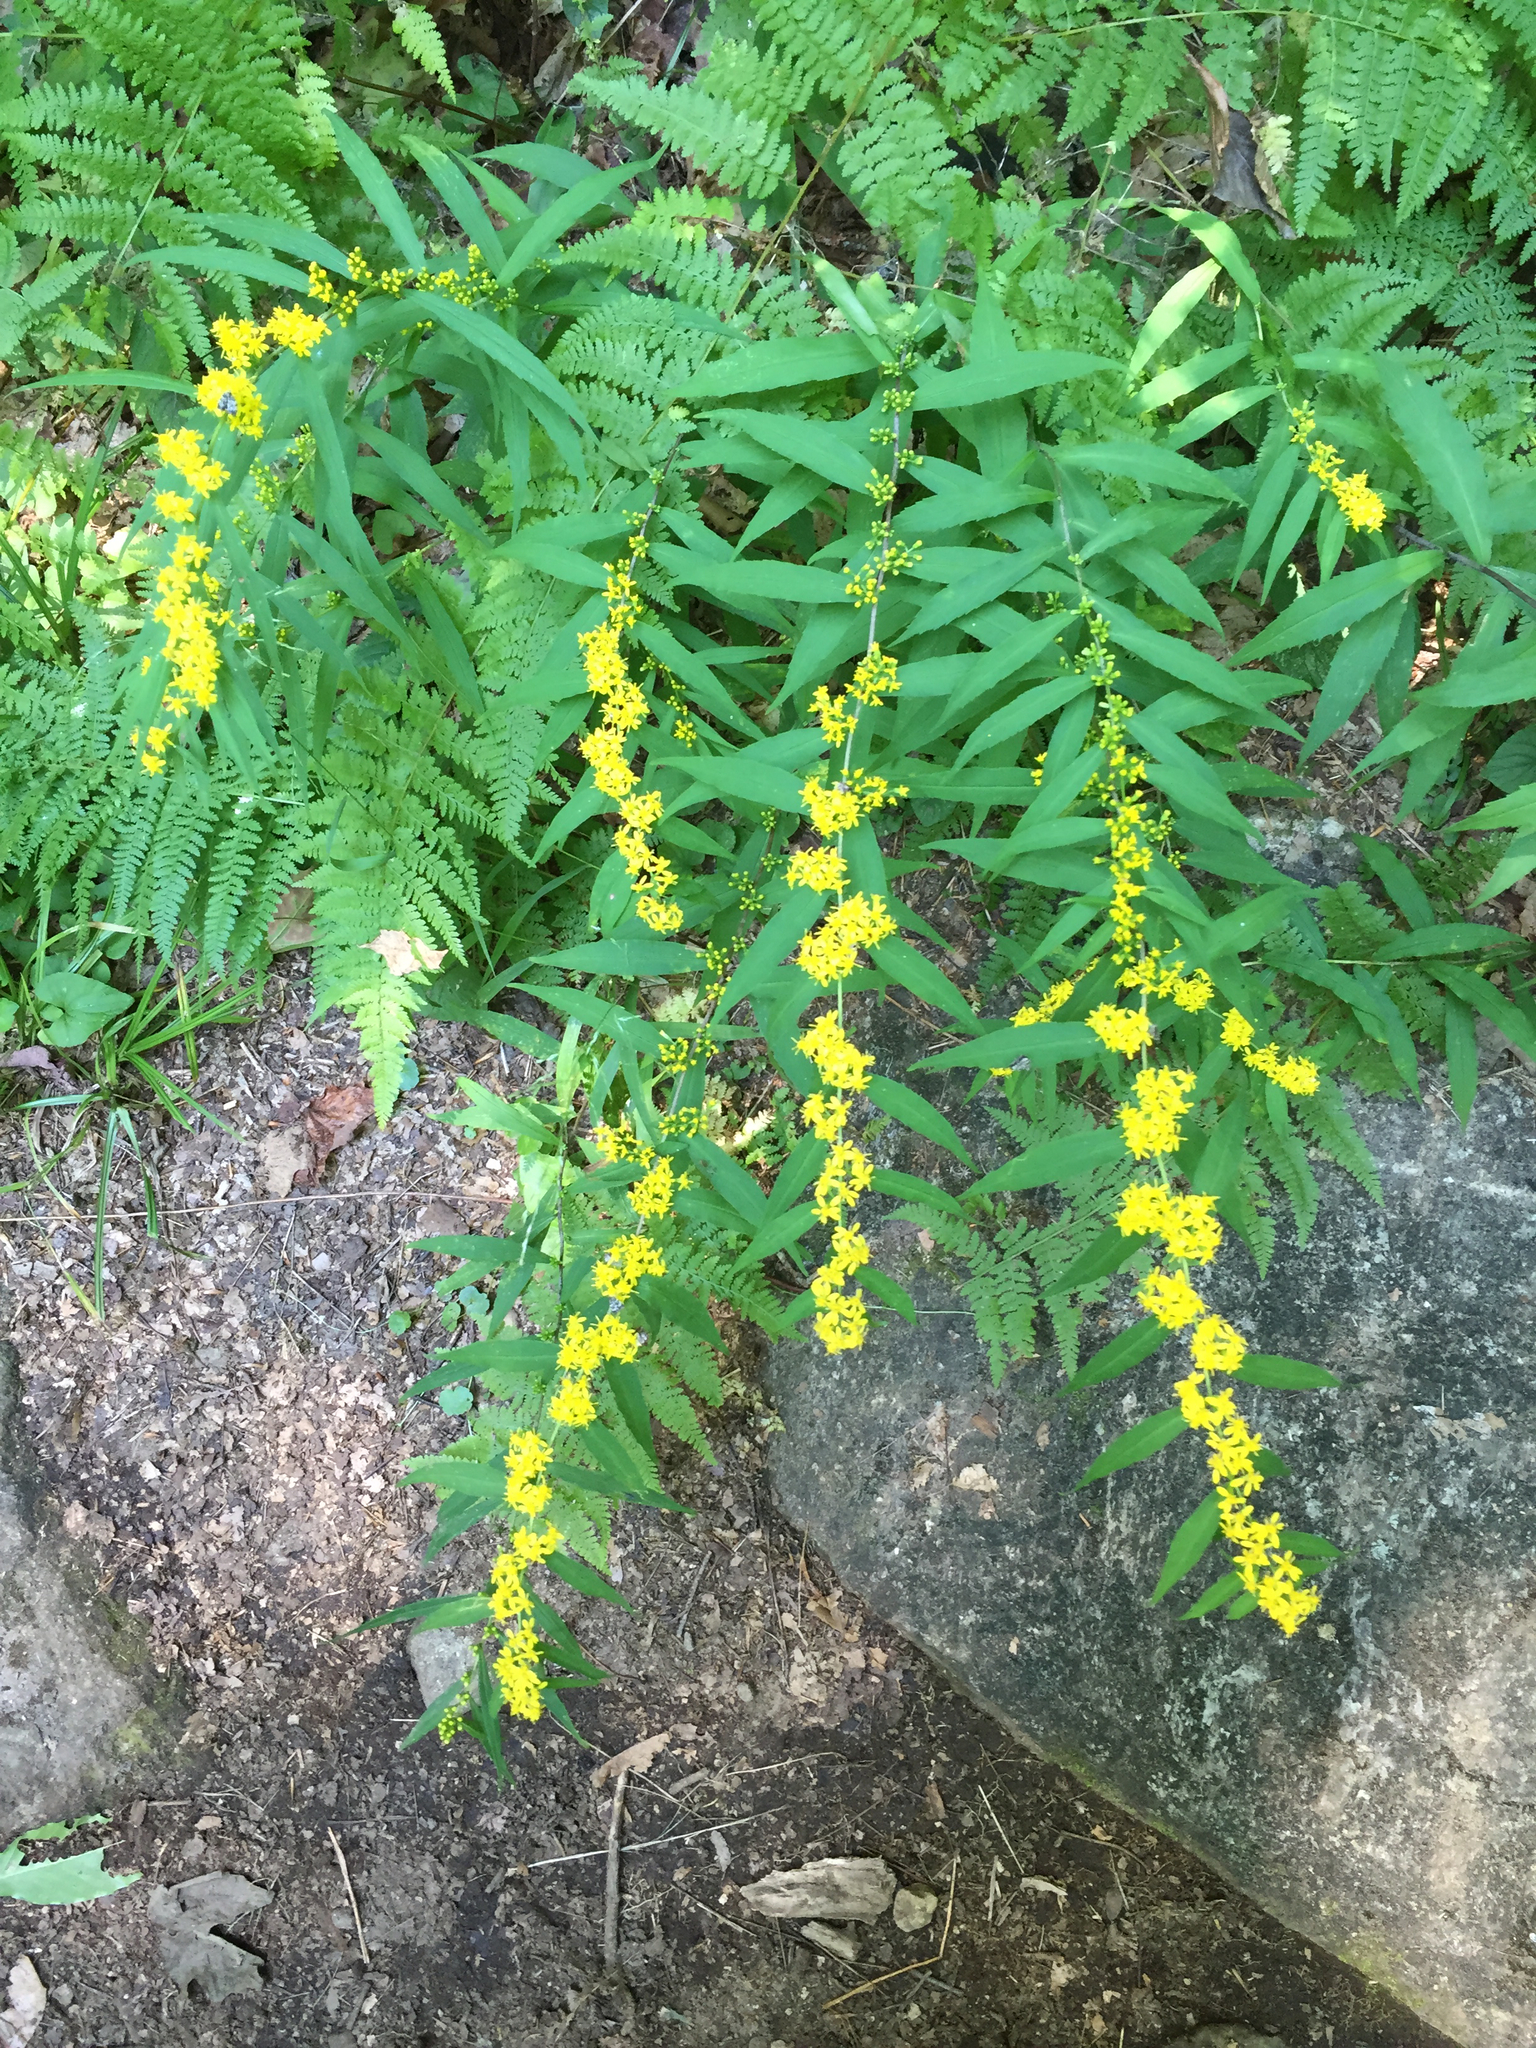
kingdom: Plantae
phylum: Tracheophyta
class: Magnoliopsida
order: Asterales
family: Asteraceae
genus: Solidago
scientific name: Solidago caesia
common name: Woodland goldenrod
